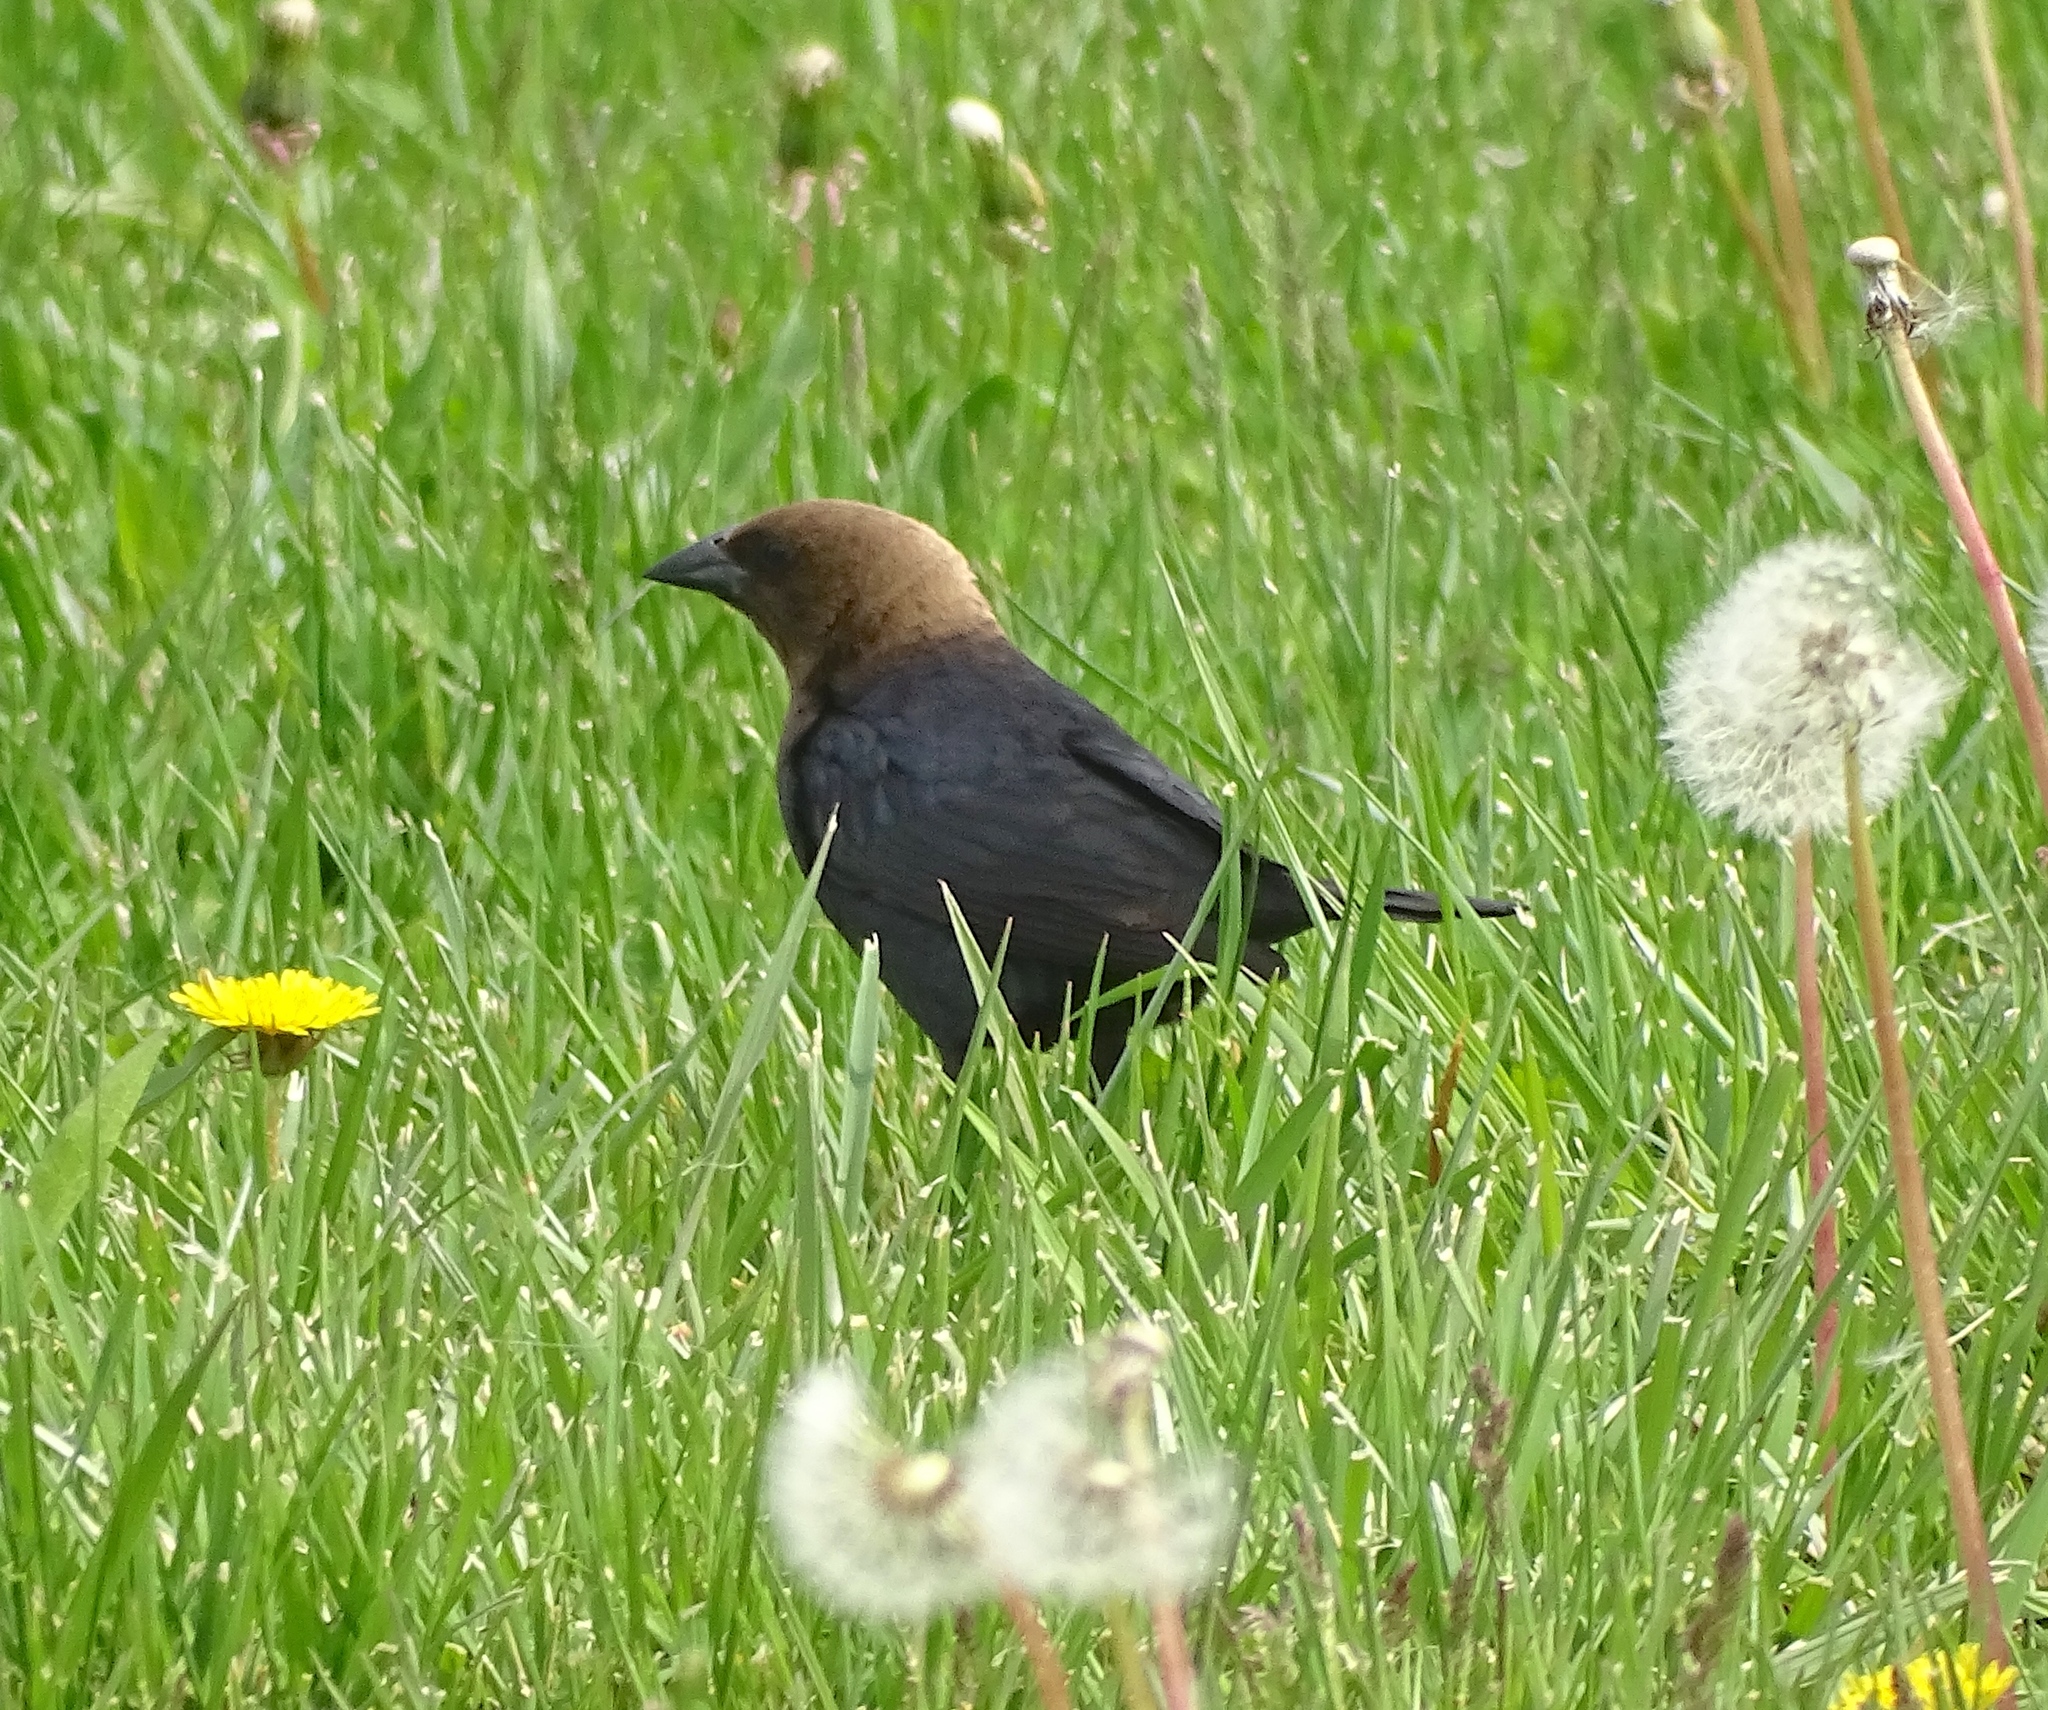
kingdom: Animalia
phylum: Chordata
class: Aves
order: Passeriformes
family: Icteridae
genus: Molothrus
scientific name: Molothrus ater
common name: Brown-headed cowbird
